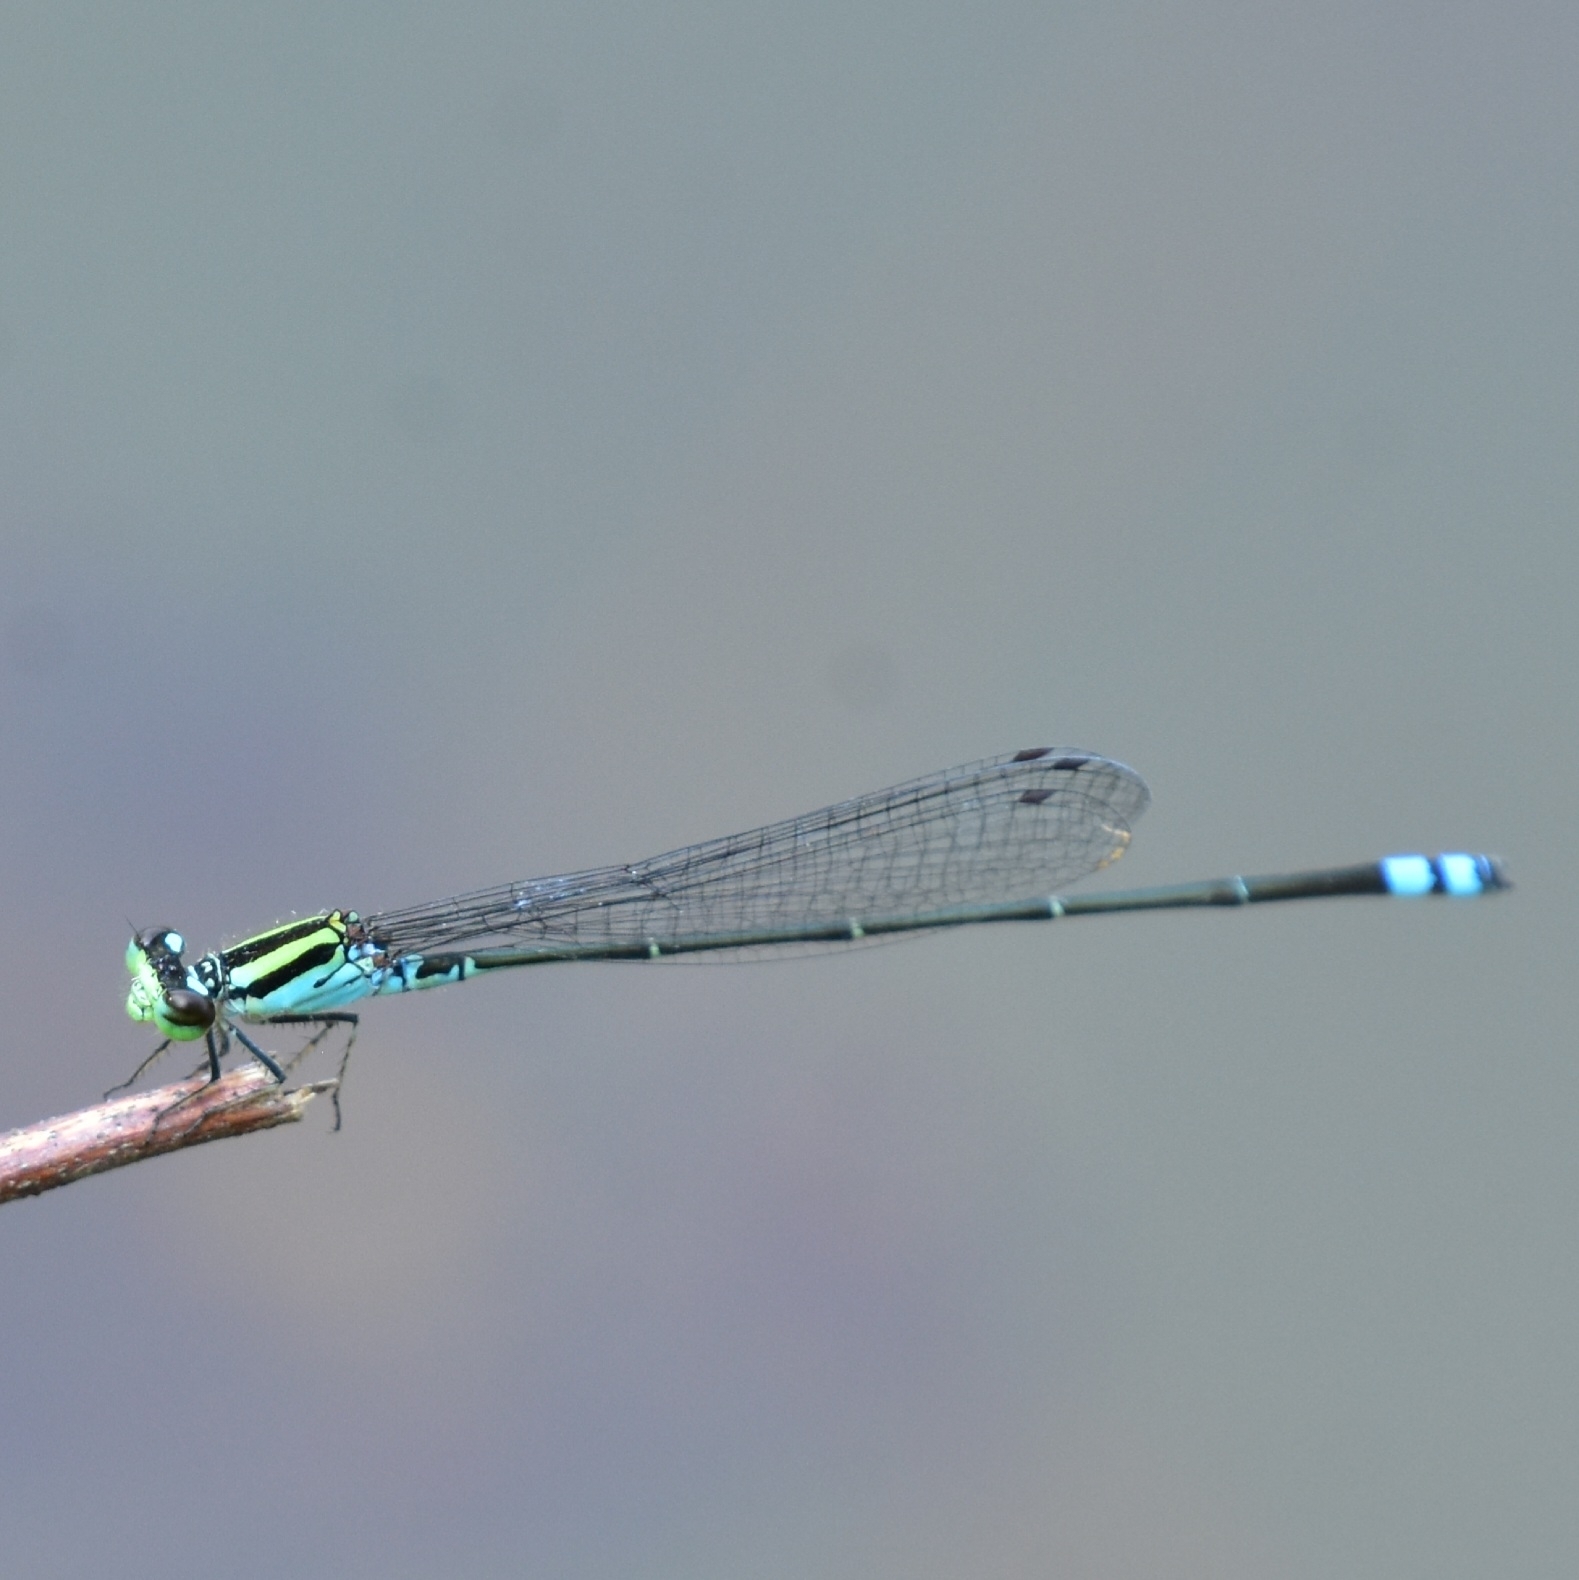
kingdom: Animalia
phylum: Arthropoda
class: Insecta
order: Odonata
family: Coenagrionidae
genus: Pseudagrion
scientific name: Pseudagrion indicum
